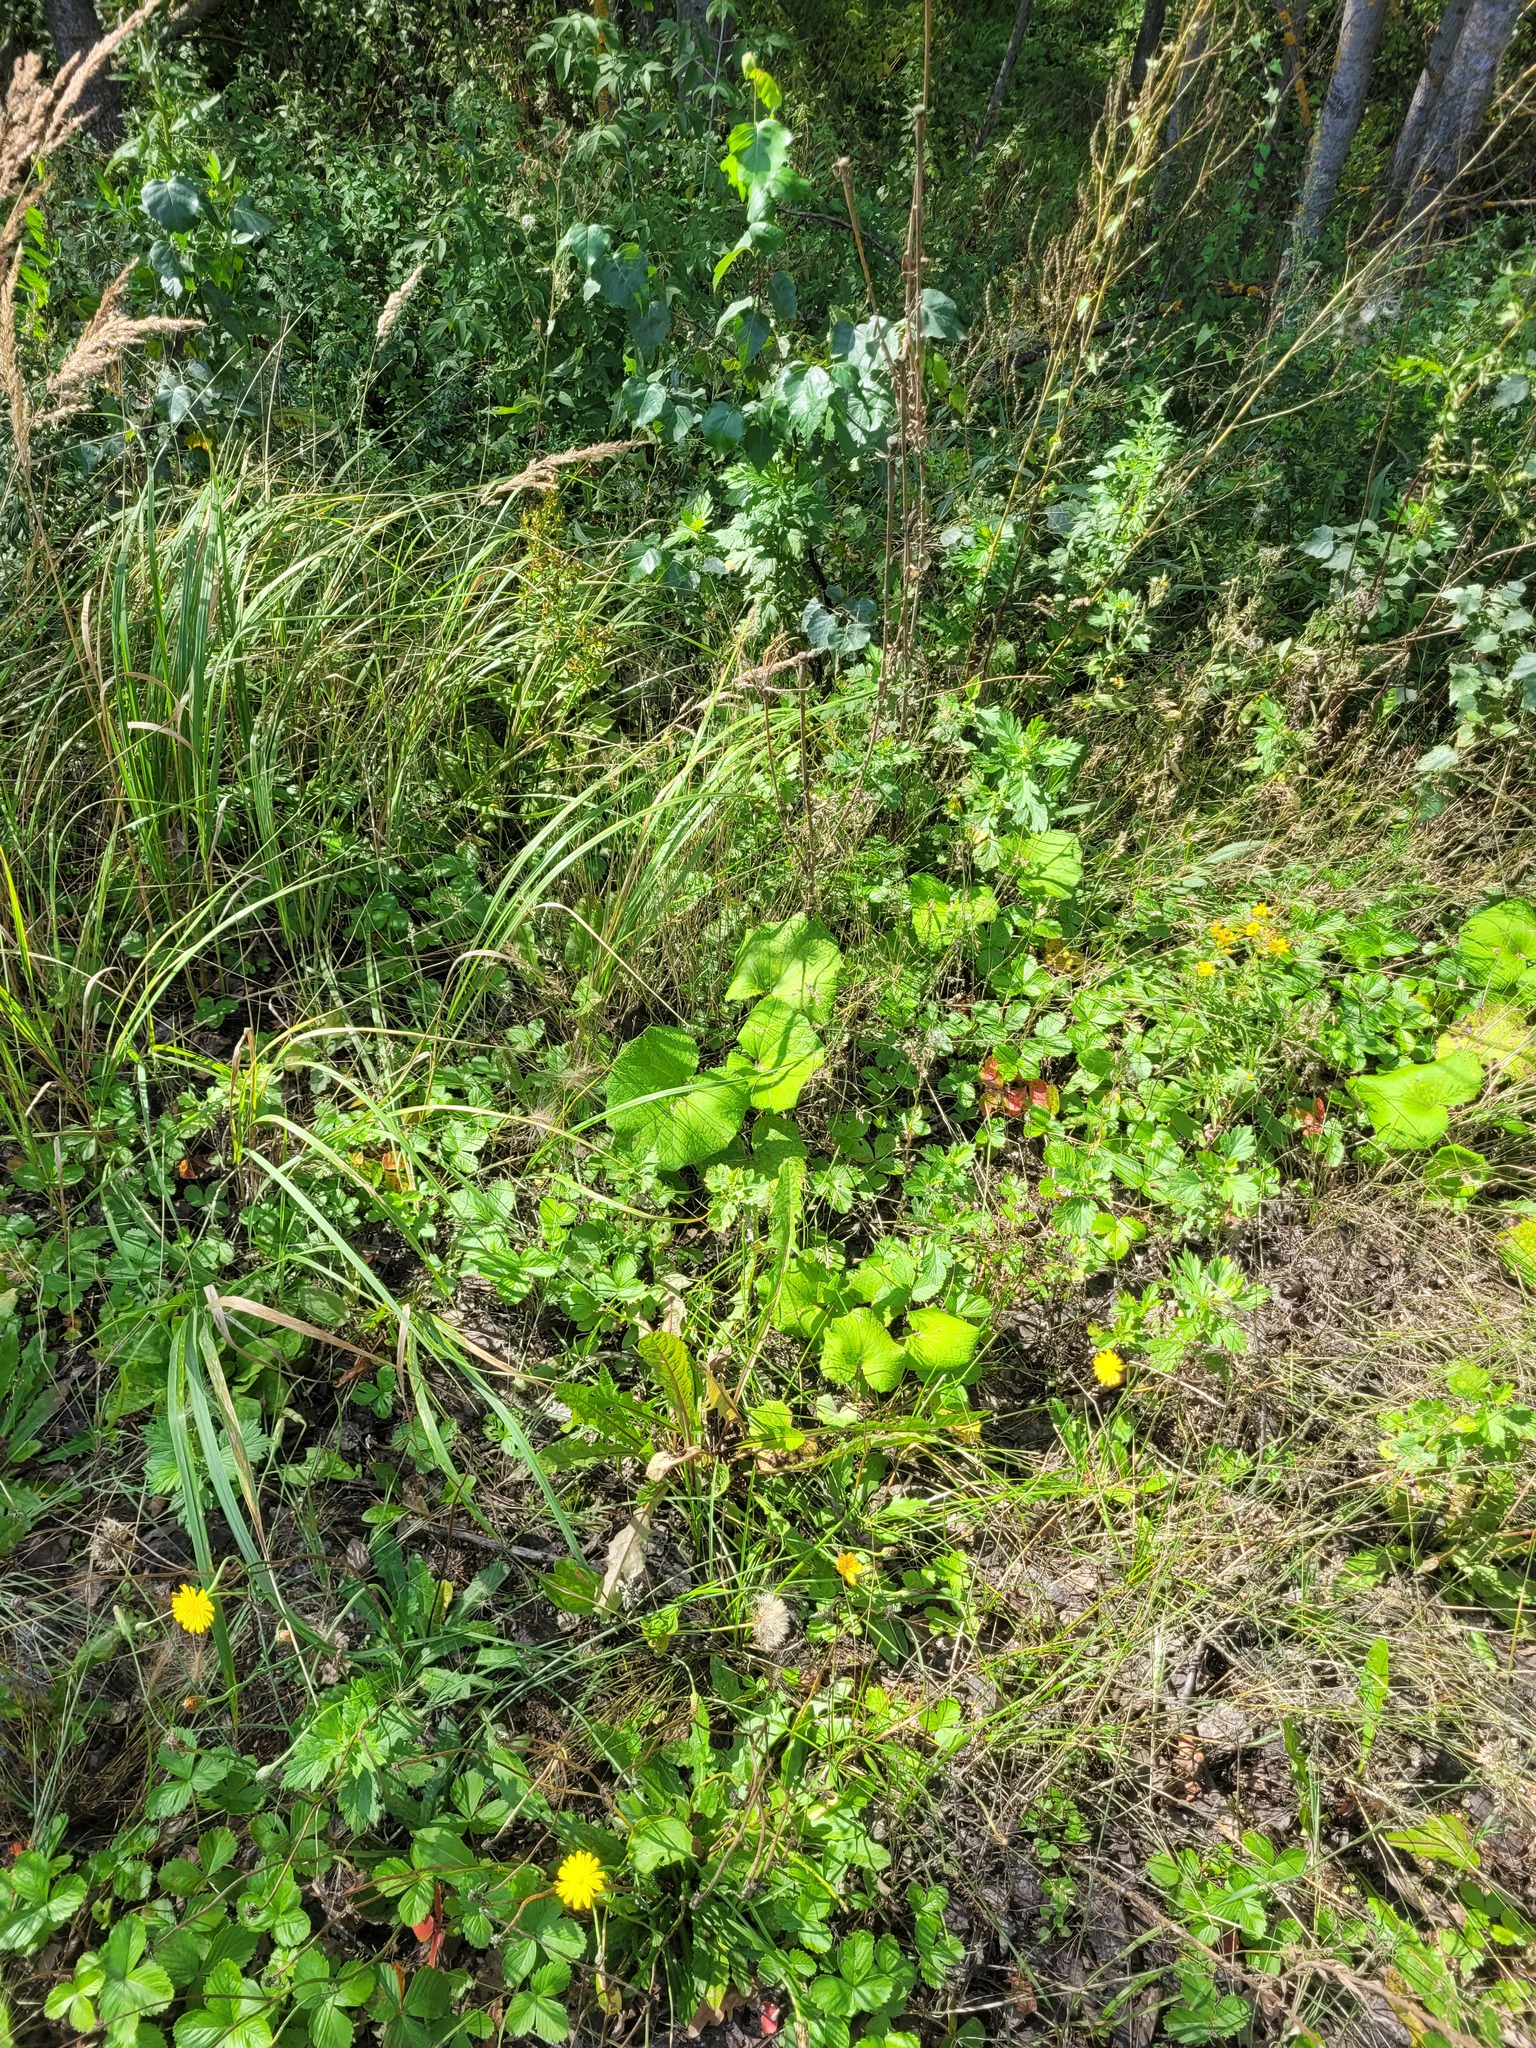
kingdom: Plantae
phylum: Tracheophyta
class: Magnoliopsida
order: Asterales
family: Asteraceae
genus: Tussilago
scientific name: Tussilago farfara
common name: Coltsfoot
